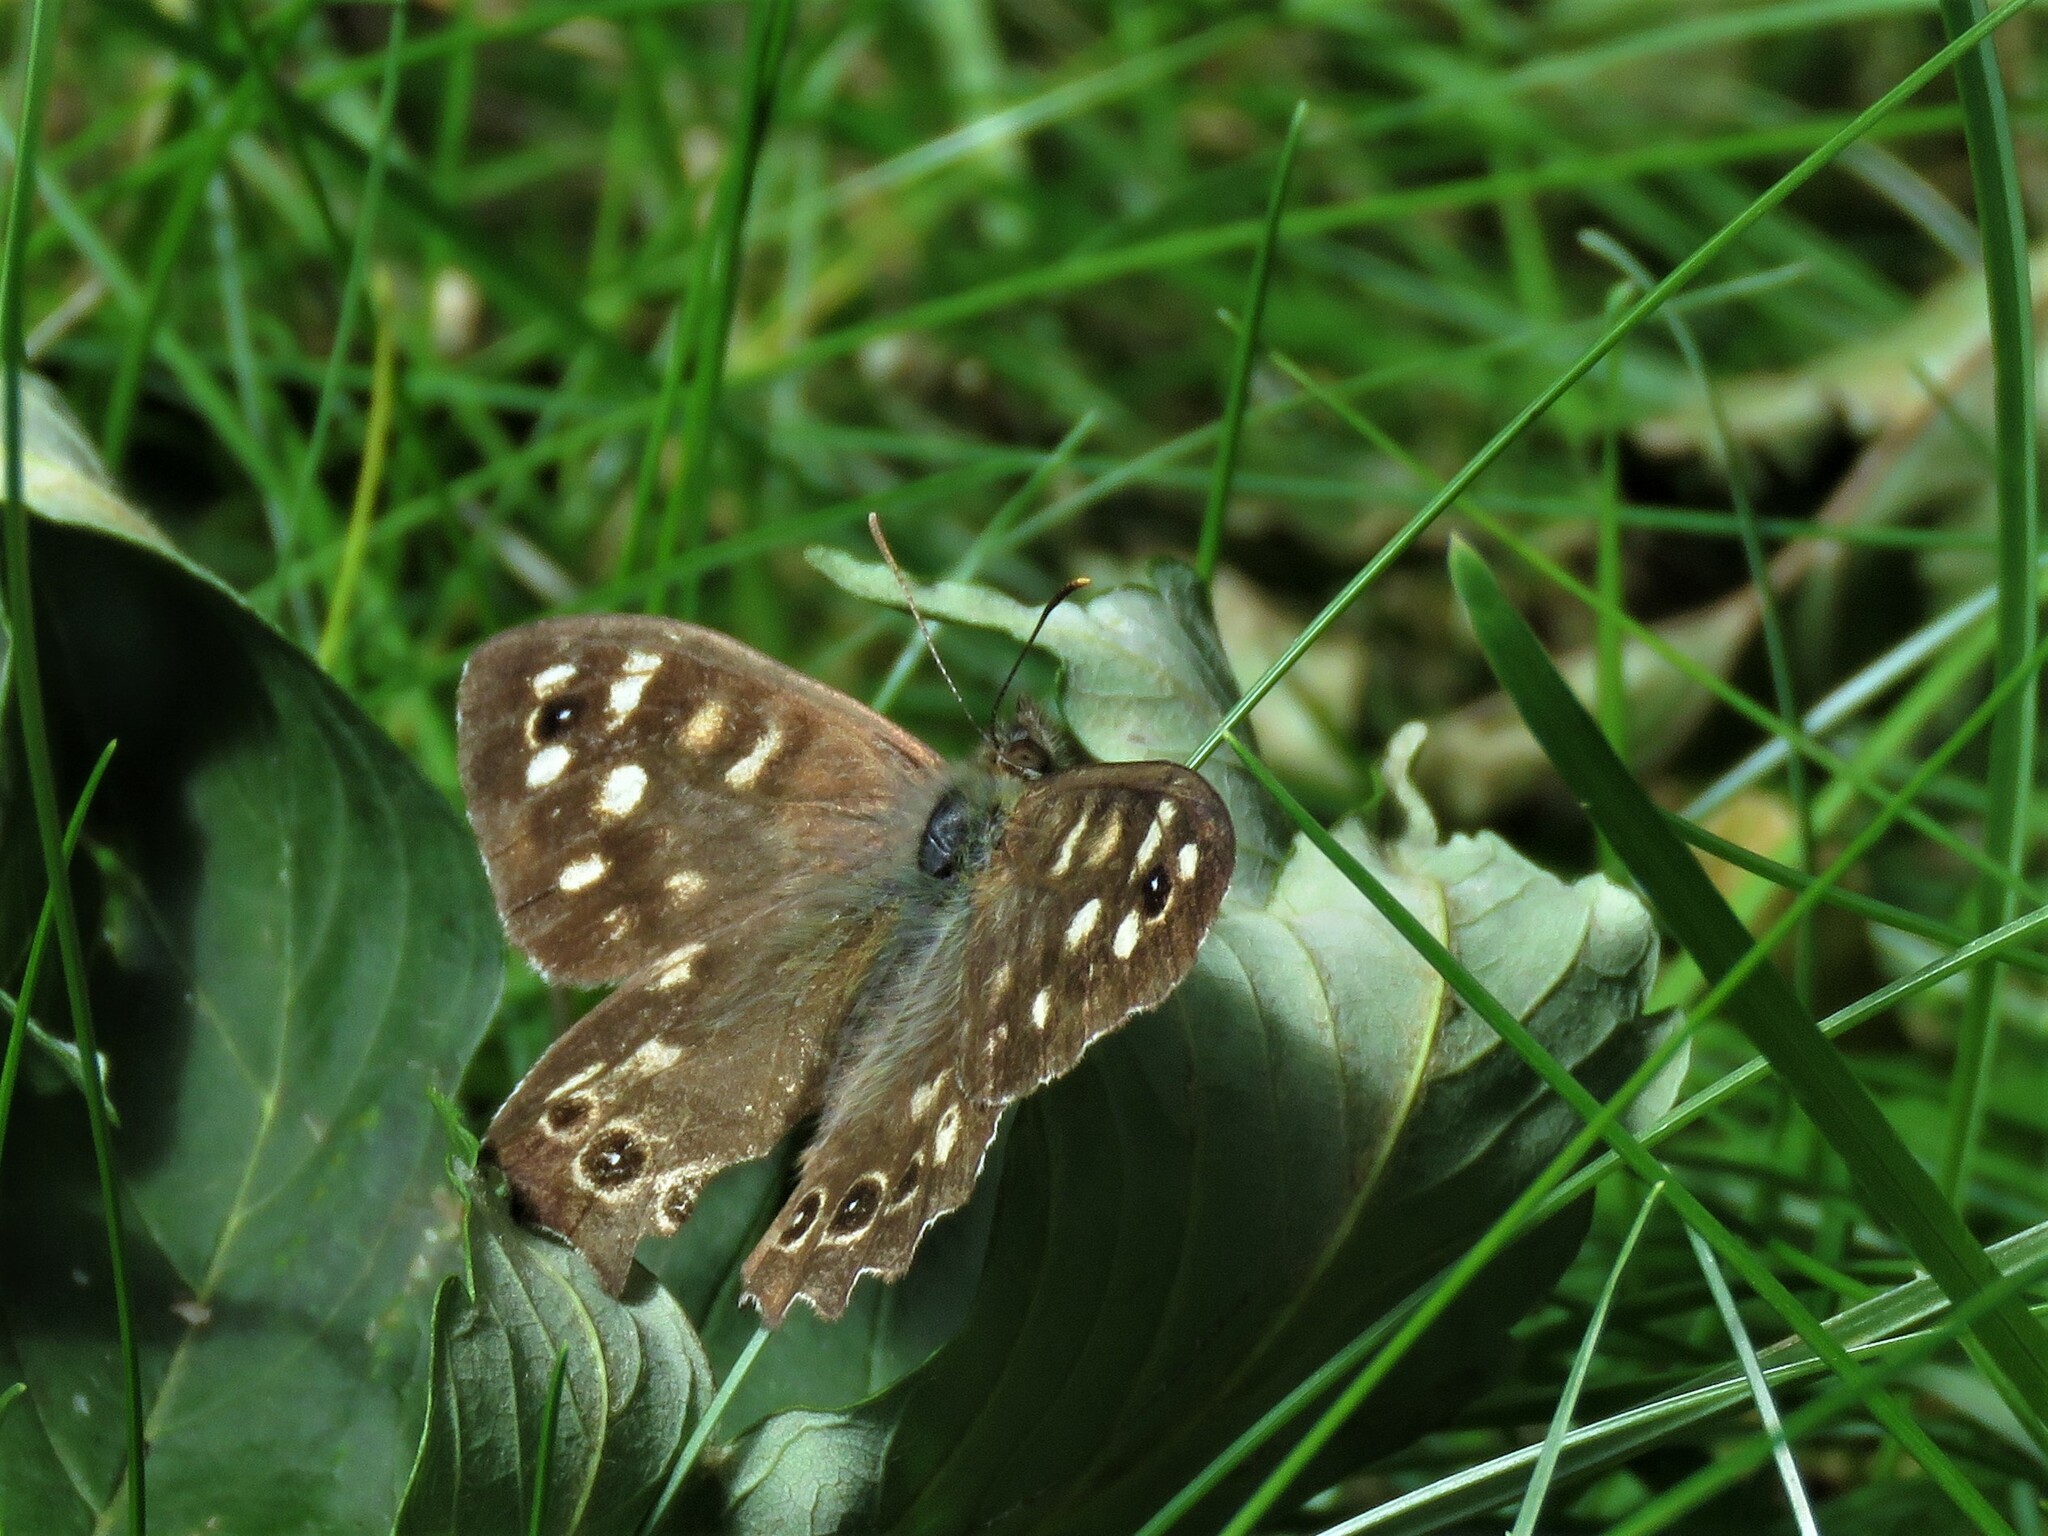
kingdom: Animalia
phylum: Arthropoda
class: Insecta
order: Lepidoptera
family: Nymphalidae
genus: Pararge
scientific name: Pararge aegeria
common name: Speckled wood
